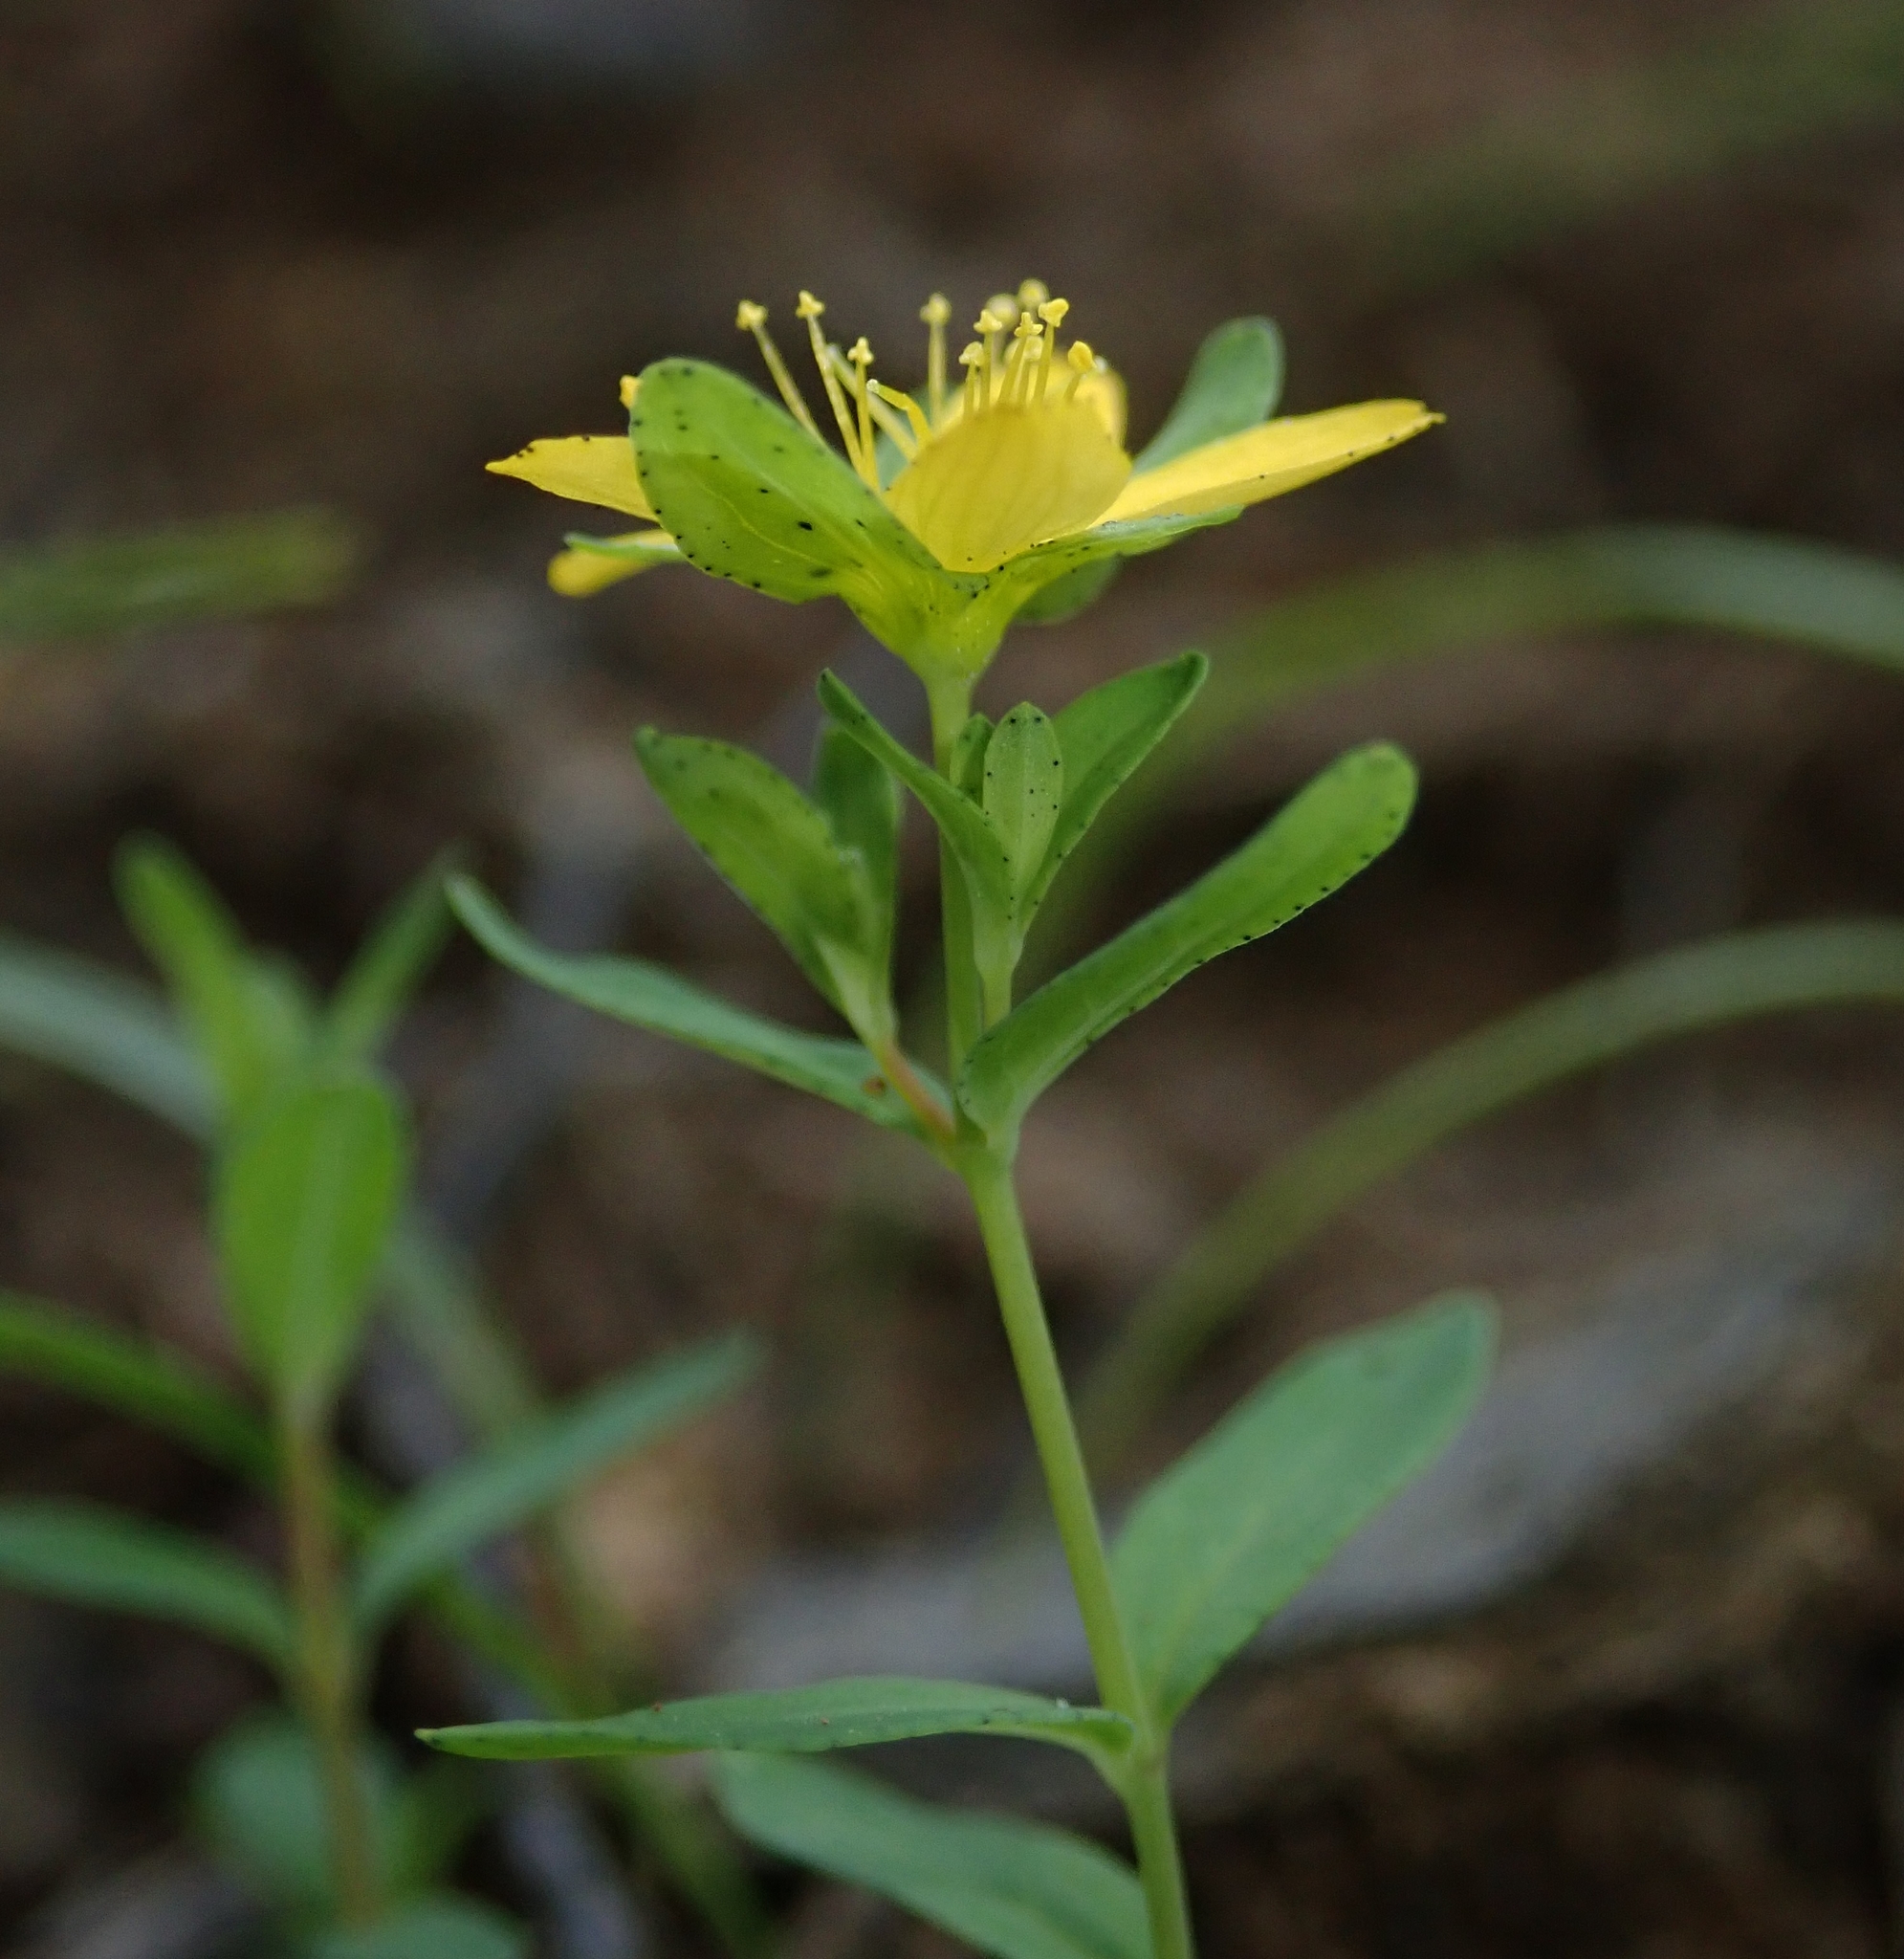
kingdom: Plantae
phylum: Tracheophyta
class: Magnoliopsida
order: Malpighiales
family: Hypericaceae
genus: Hypericum
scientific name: Hypericum humifusum
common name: Trailing st. john's-wort
